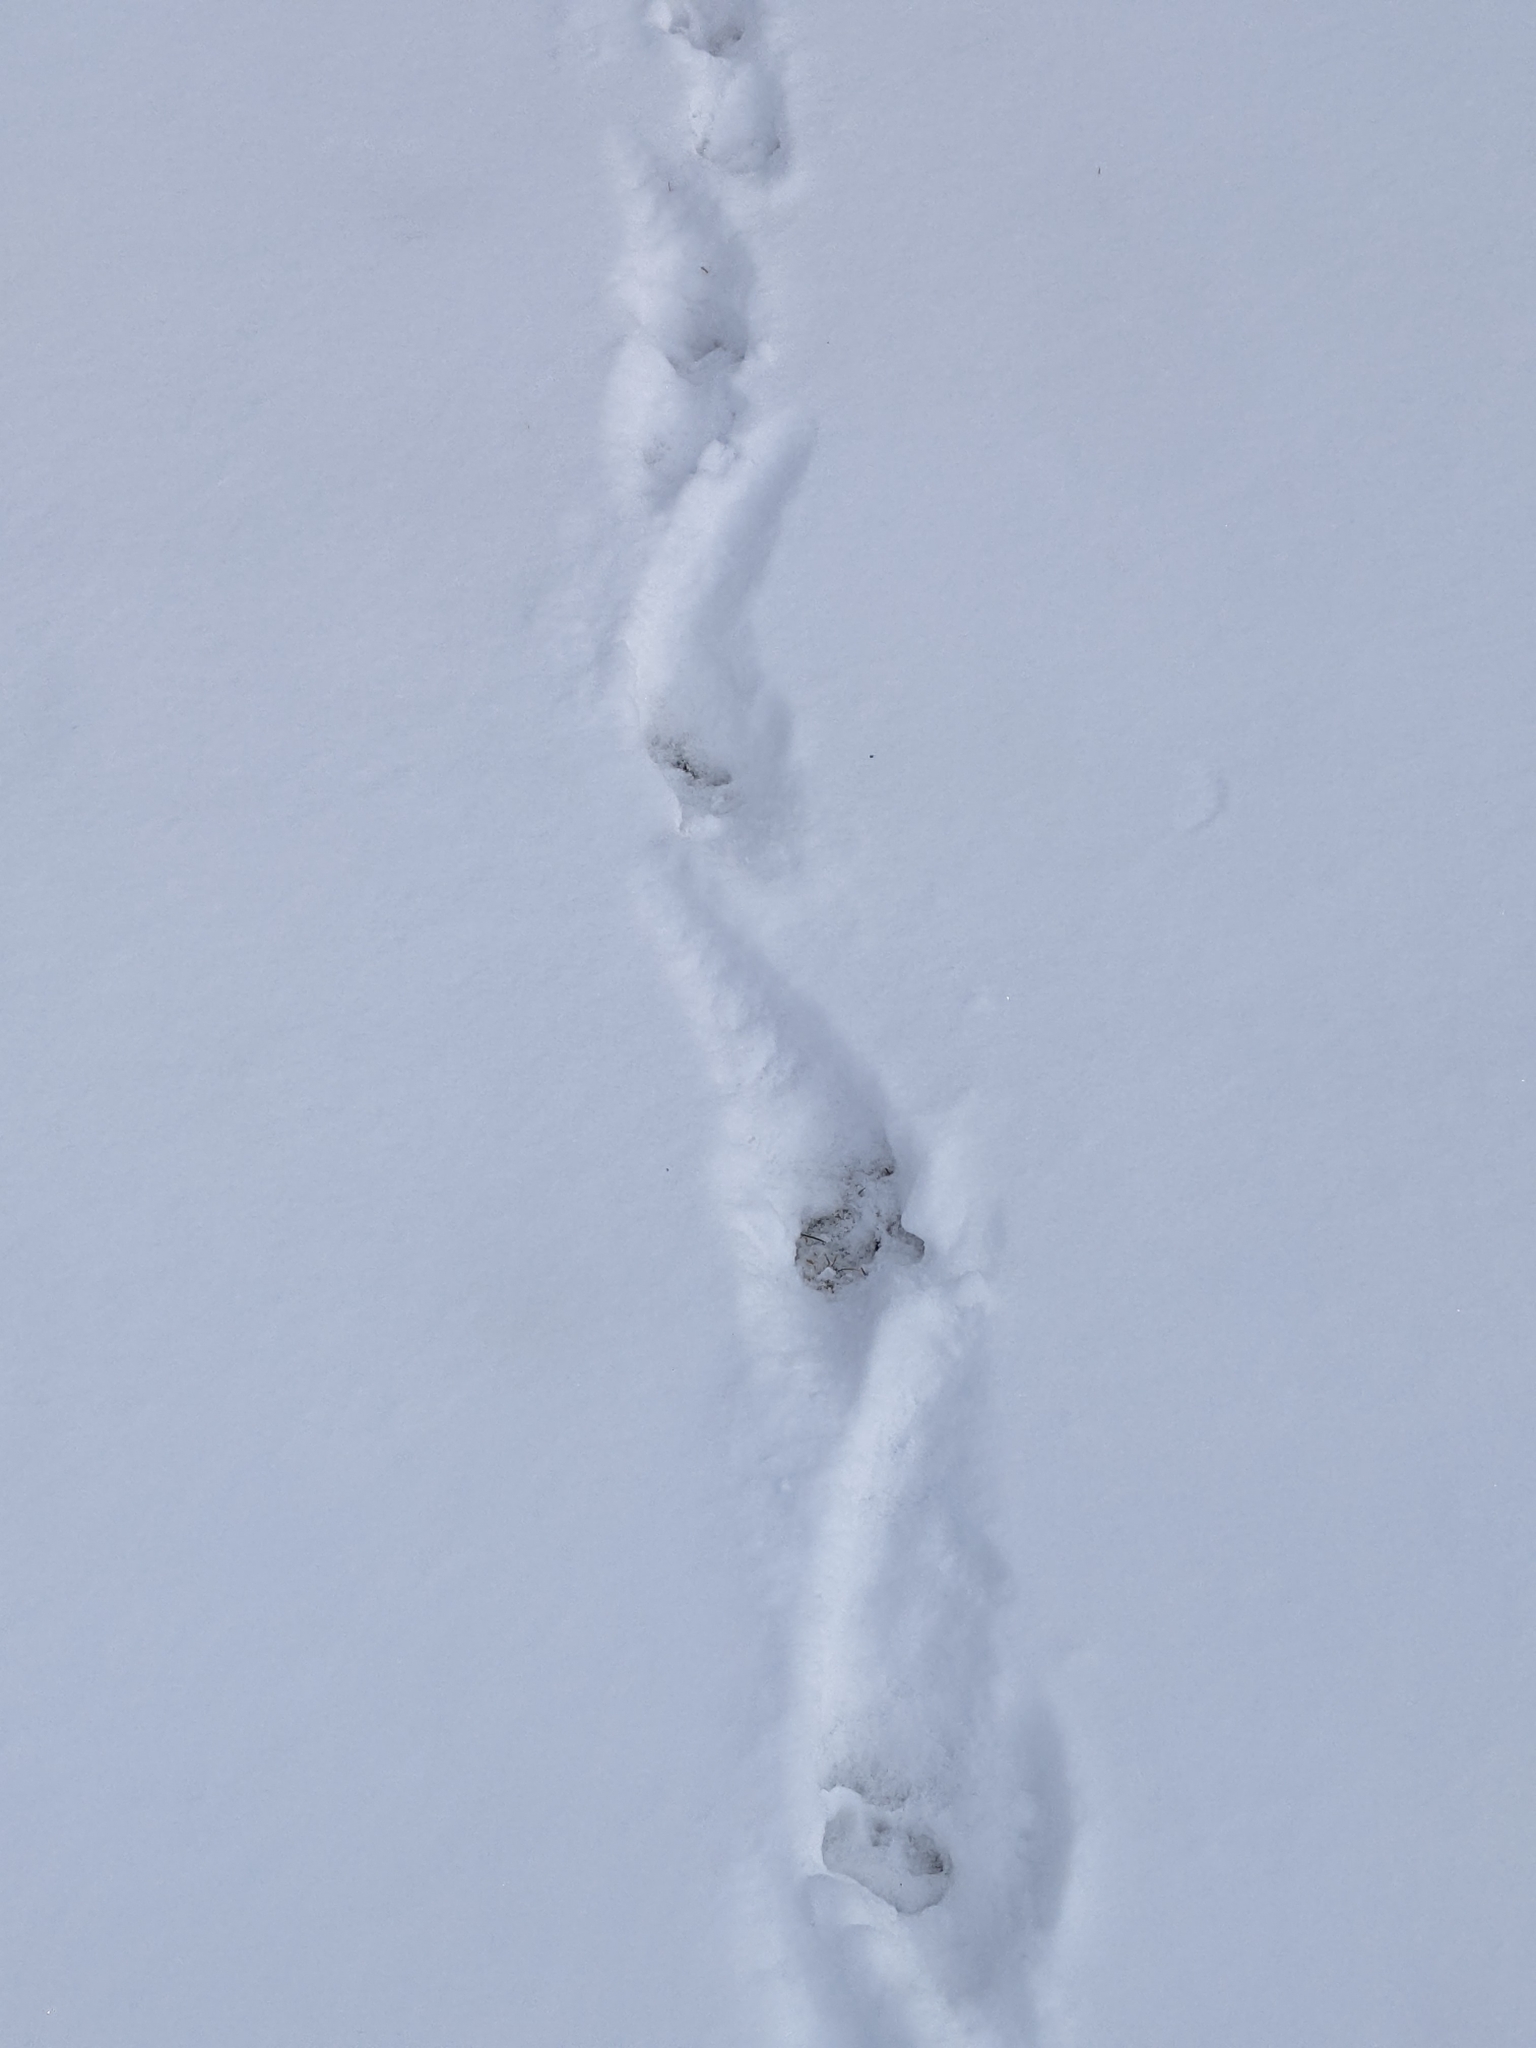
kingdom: Animalia
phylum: Chordata
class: Mammalia
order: Didelphimorphia
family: Didelphidae
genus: Didelphis
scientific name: Didelphis virginiana
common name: Virginia opossum
